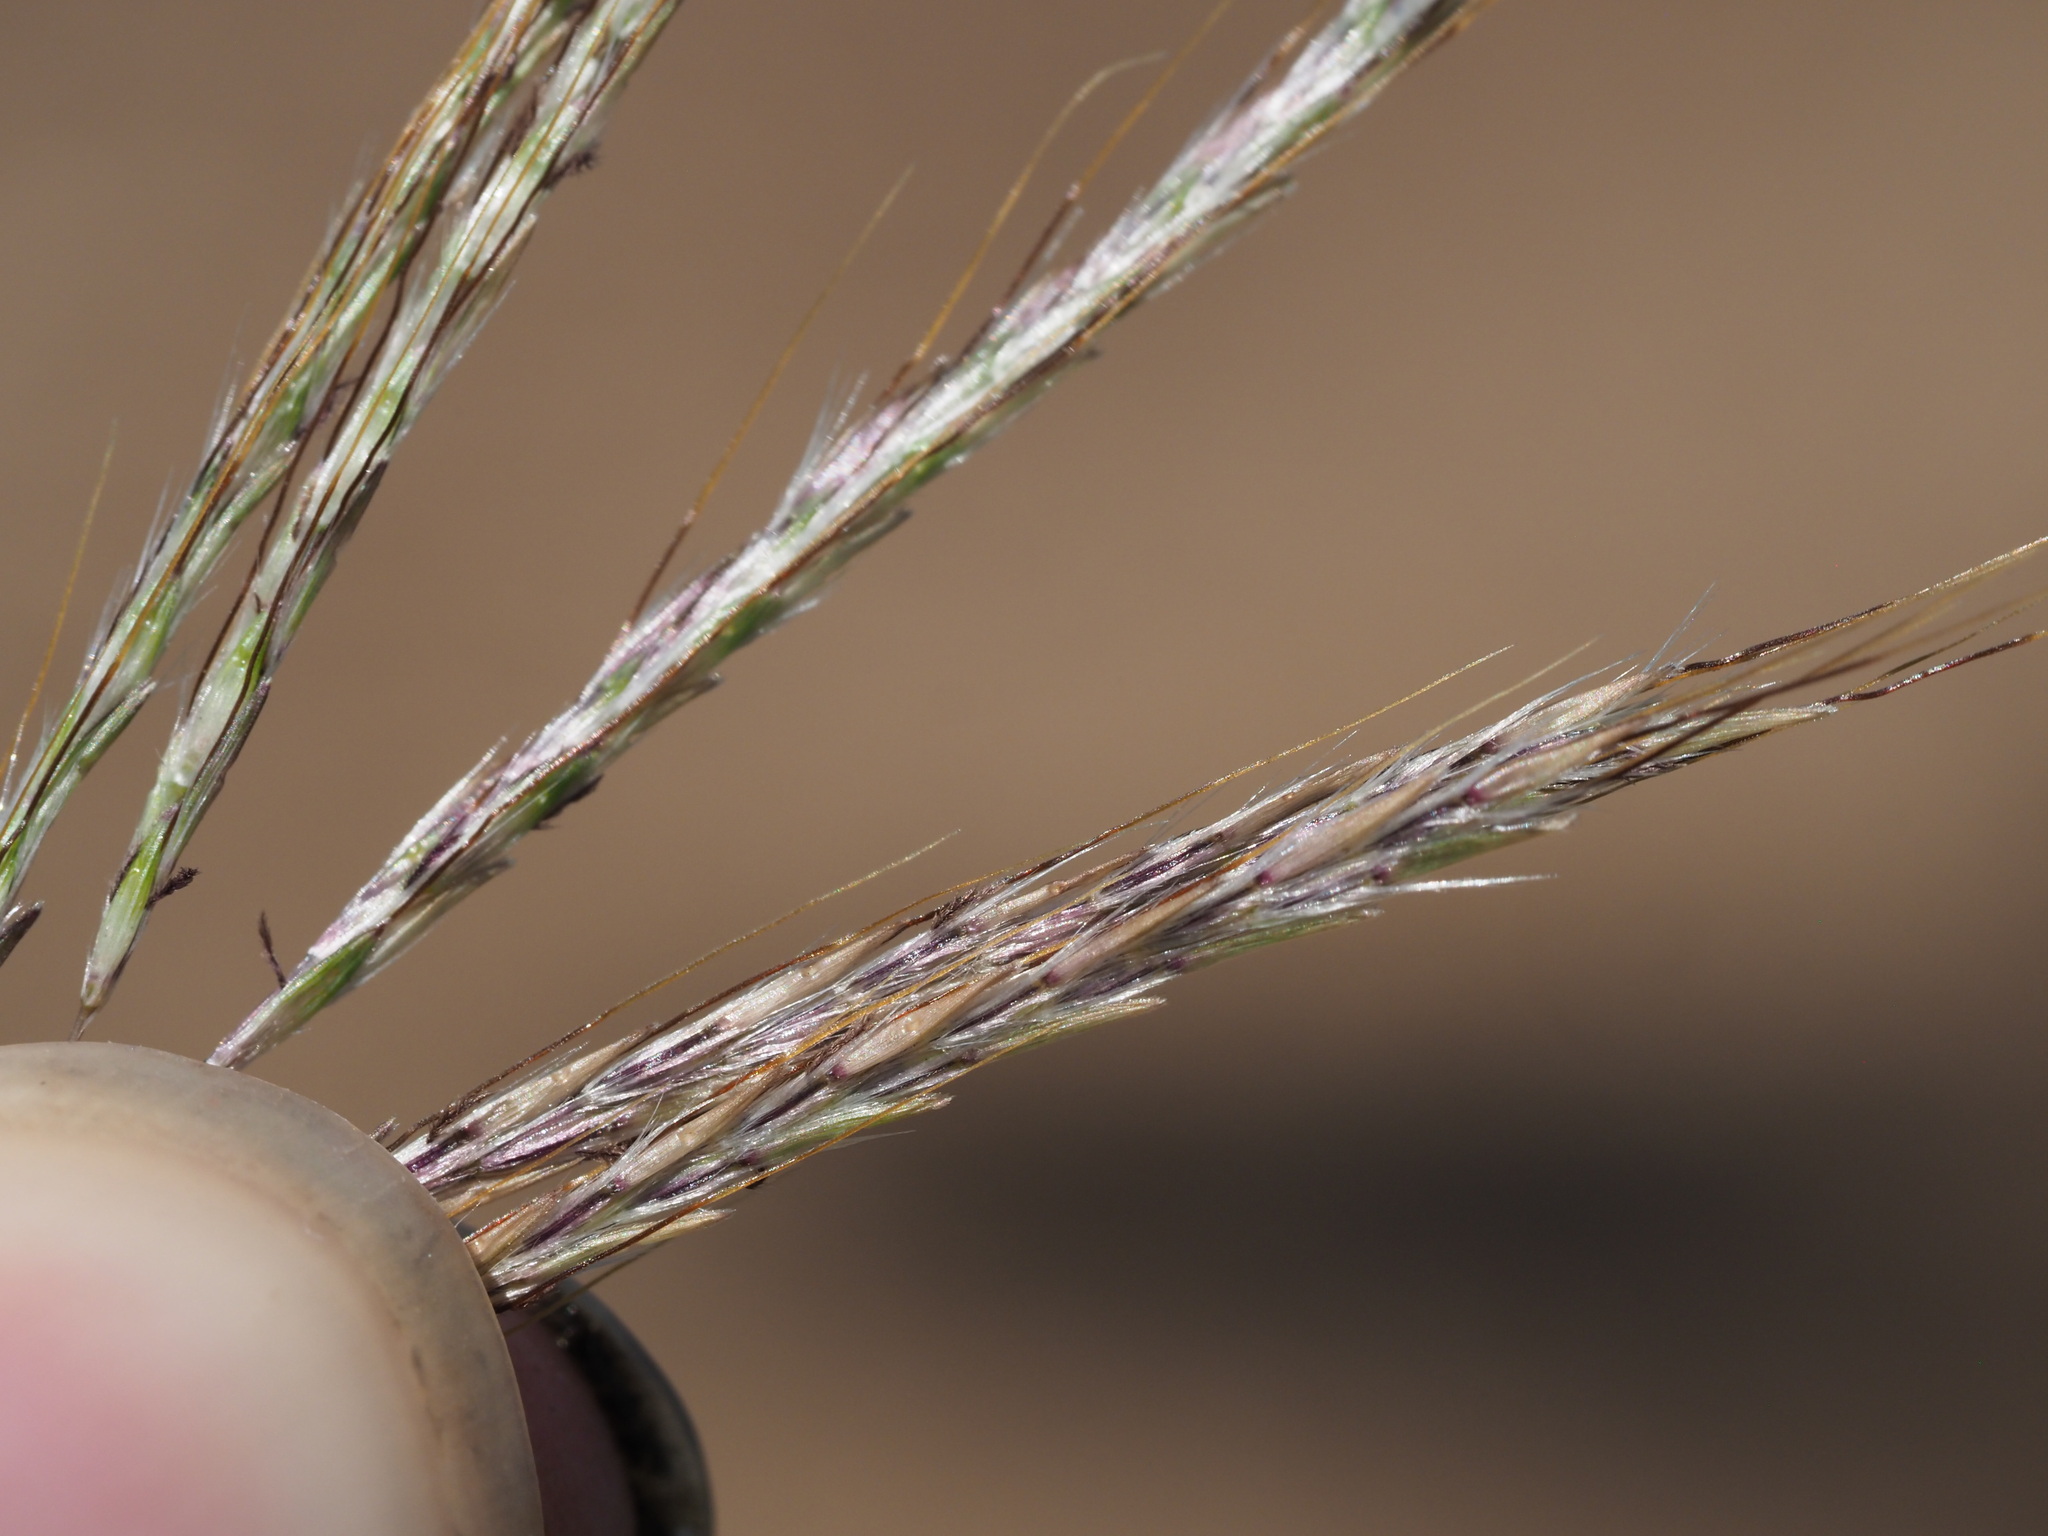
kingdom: Plantae
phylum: Tracheophyta
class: Liliopsida
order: Poales
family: Poaceae
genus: Bothriochloa
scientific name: Bothriochloa pertusa
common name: Pitted beardgrass
